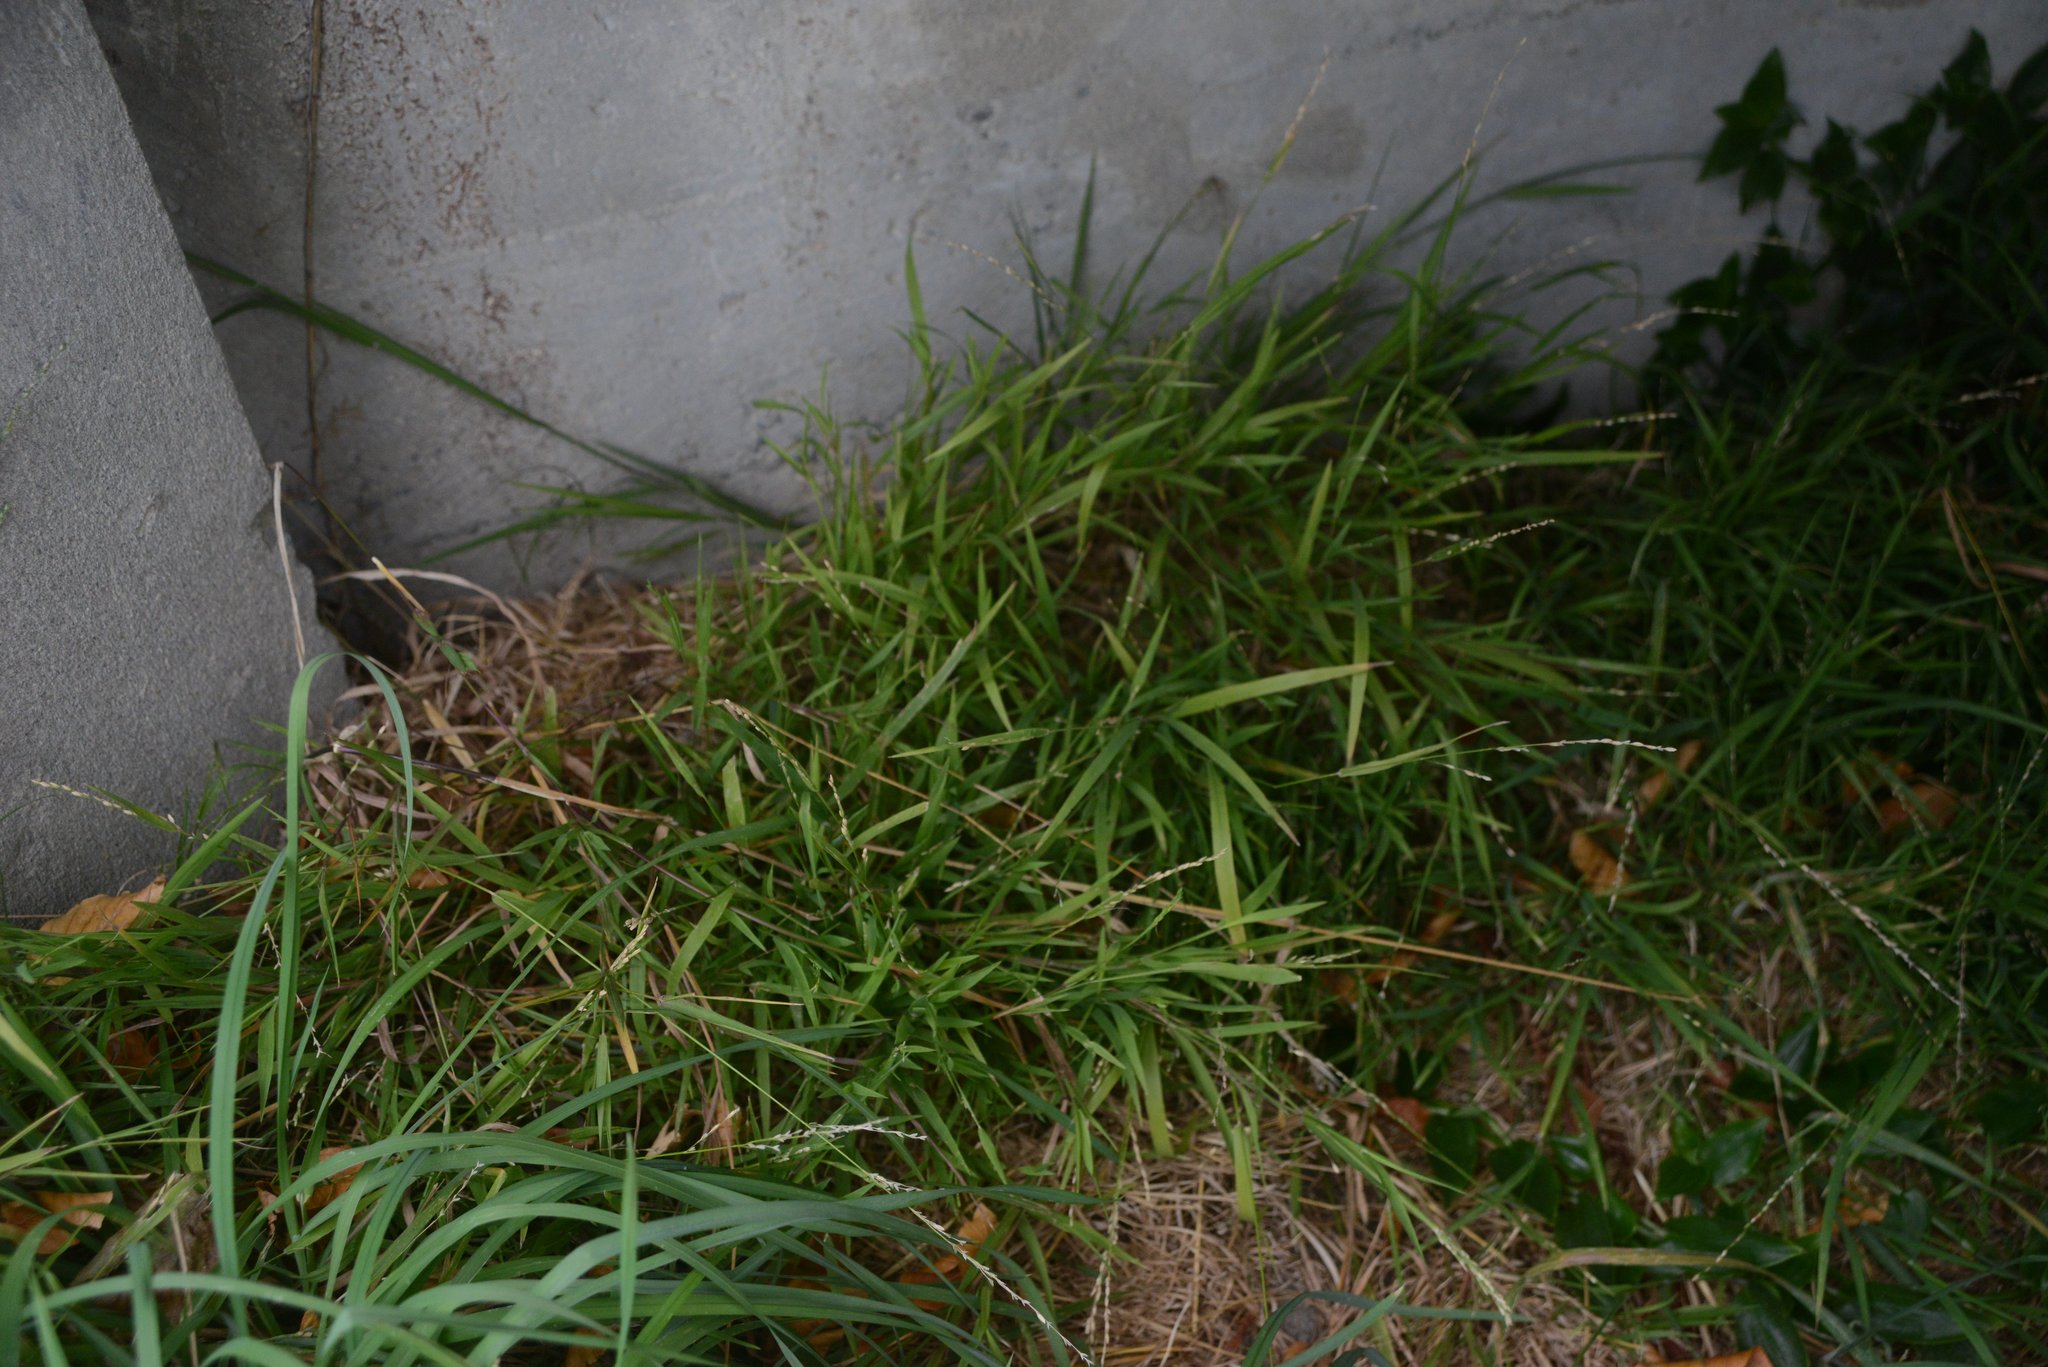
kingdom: Plantae
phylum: Tracheophyta
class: Liliopsida
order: Poales
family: Poaceae
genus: Ehrharta
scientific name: Ehrharta erecta
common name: Panic veldtgrass
